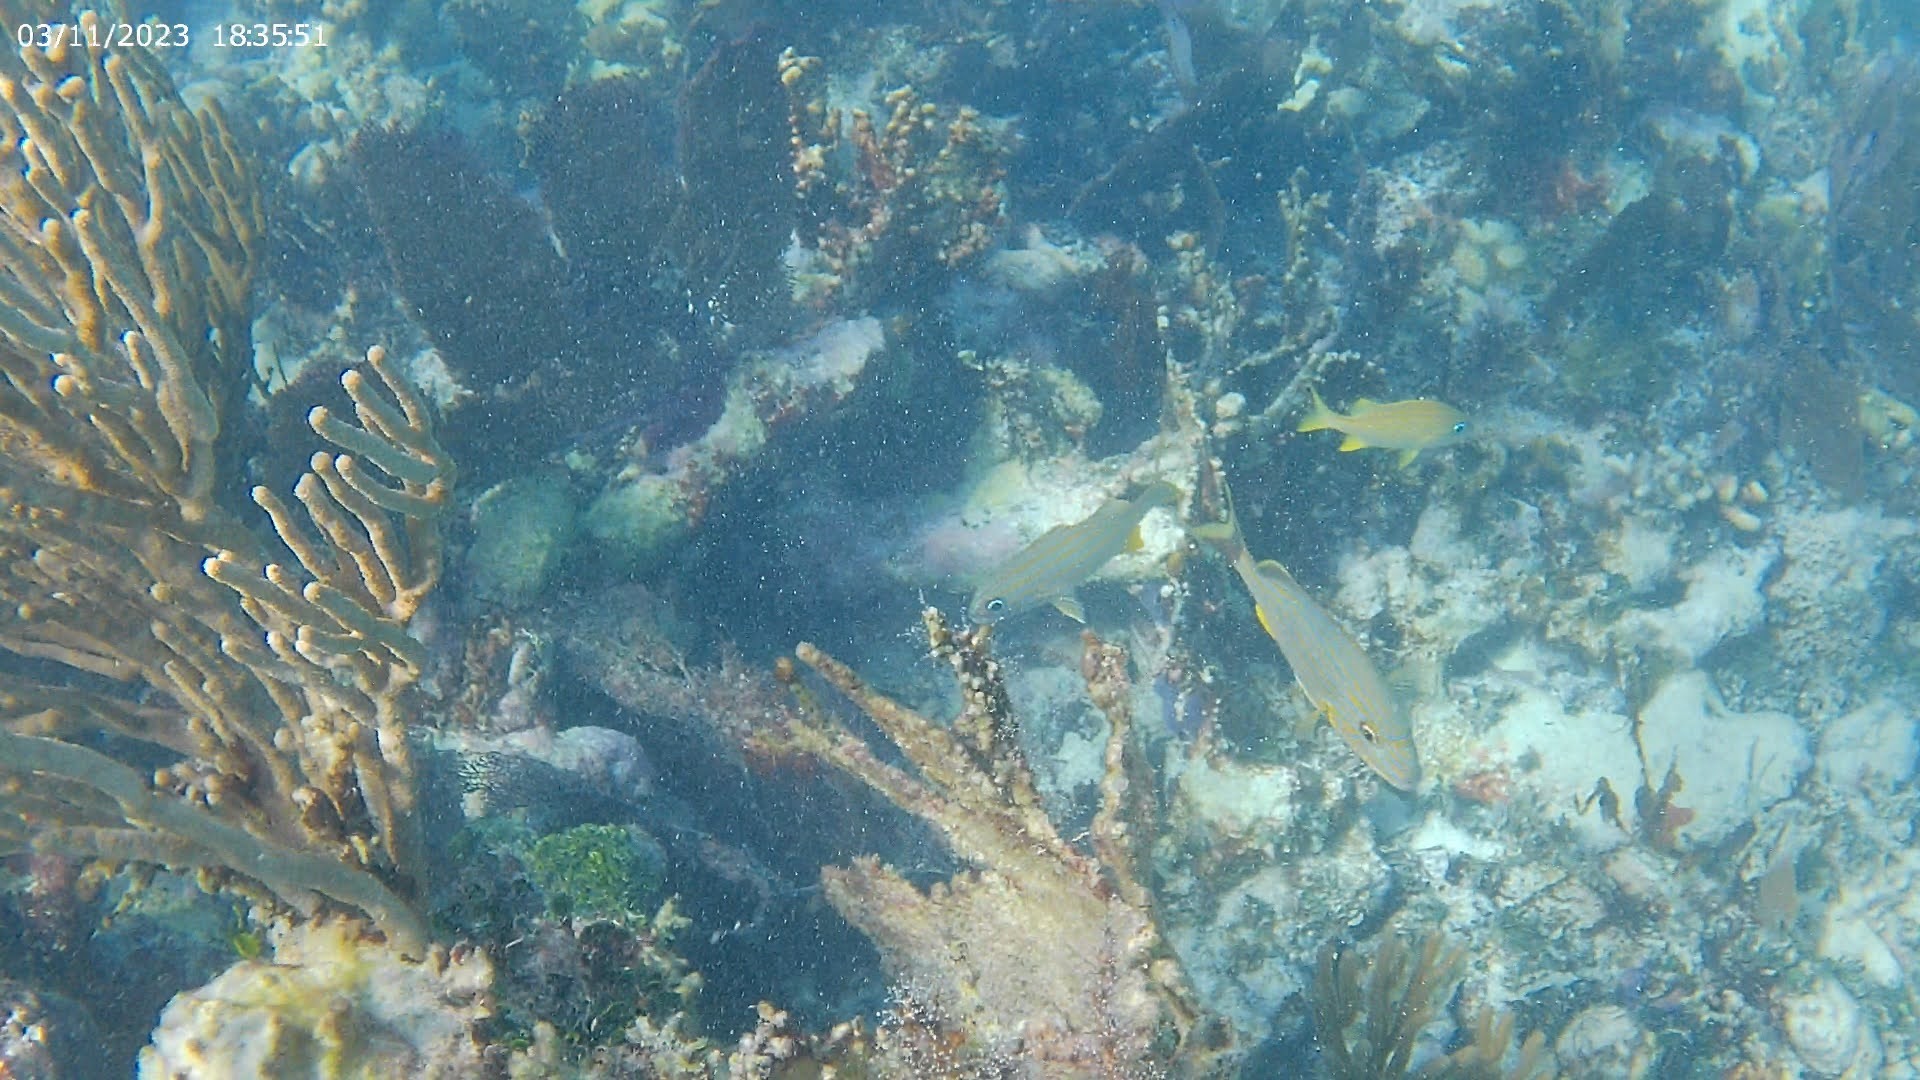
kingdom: Animalia
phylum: Chordata
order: Perciformes
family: Haemulidae
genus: Haemulon
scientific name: Haemulon flavolineatum
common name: French grunt
